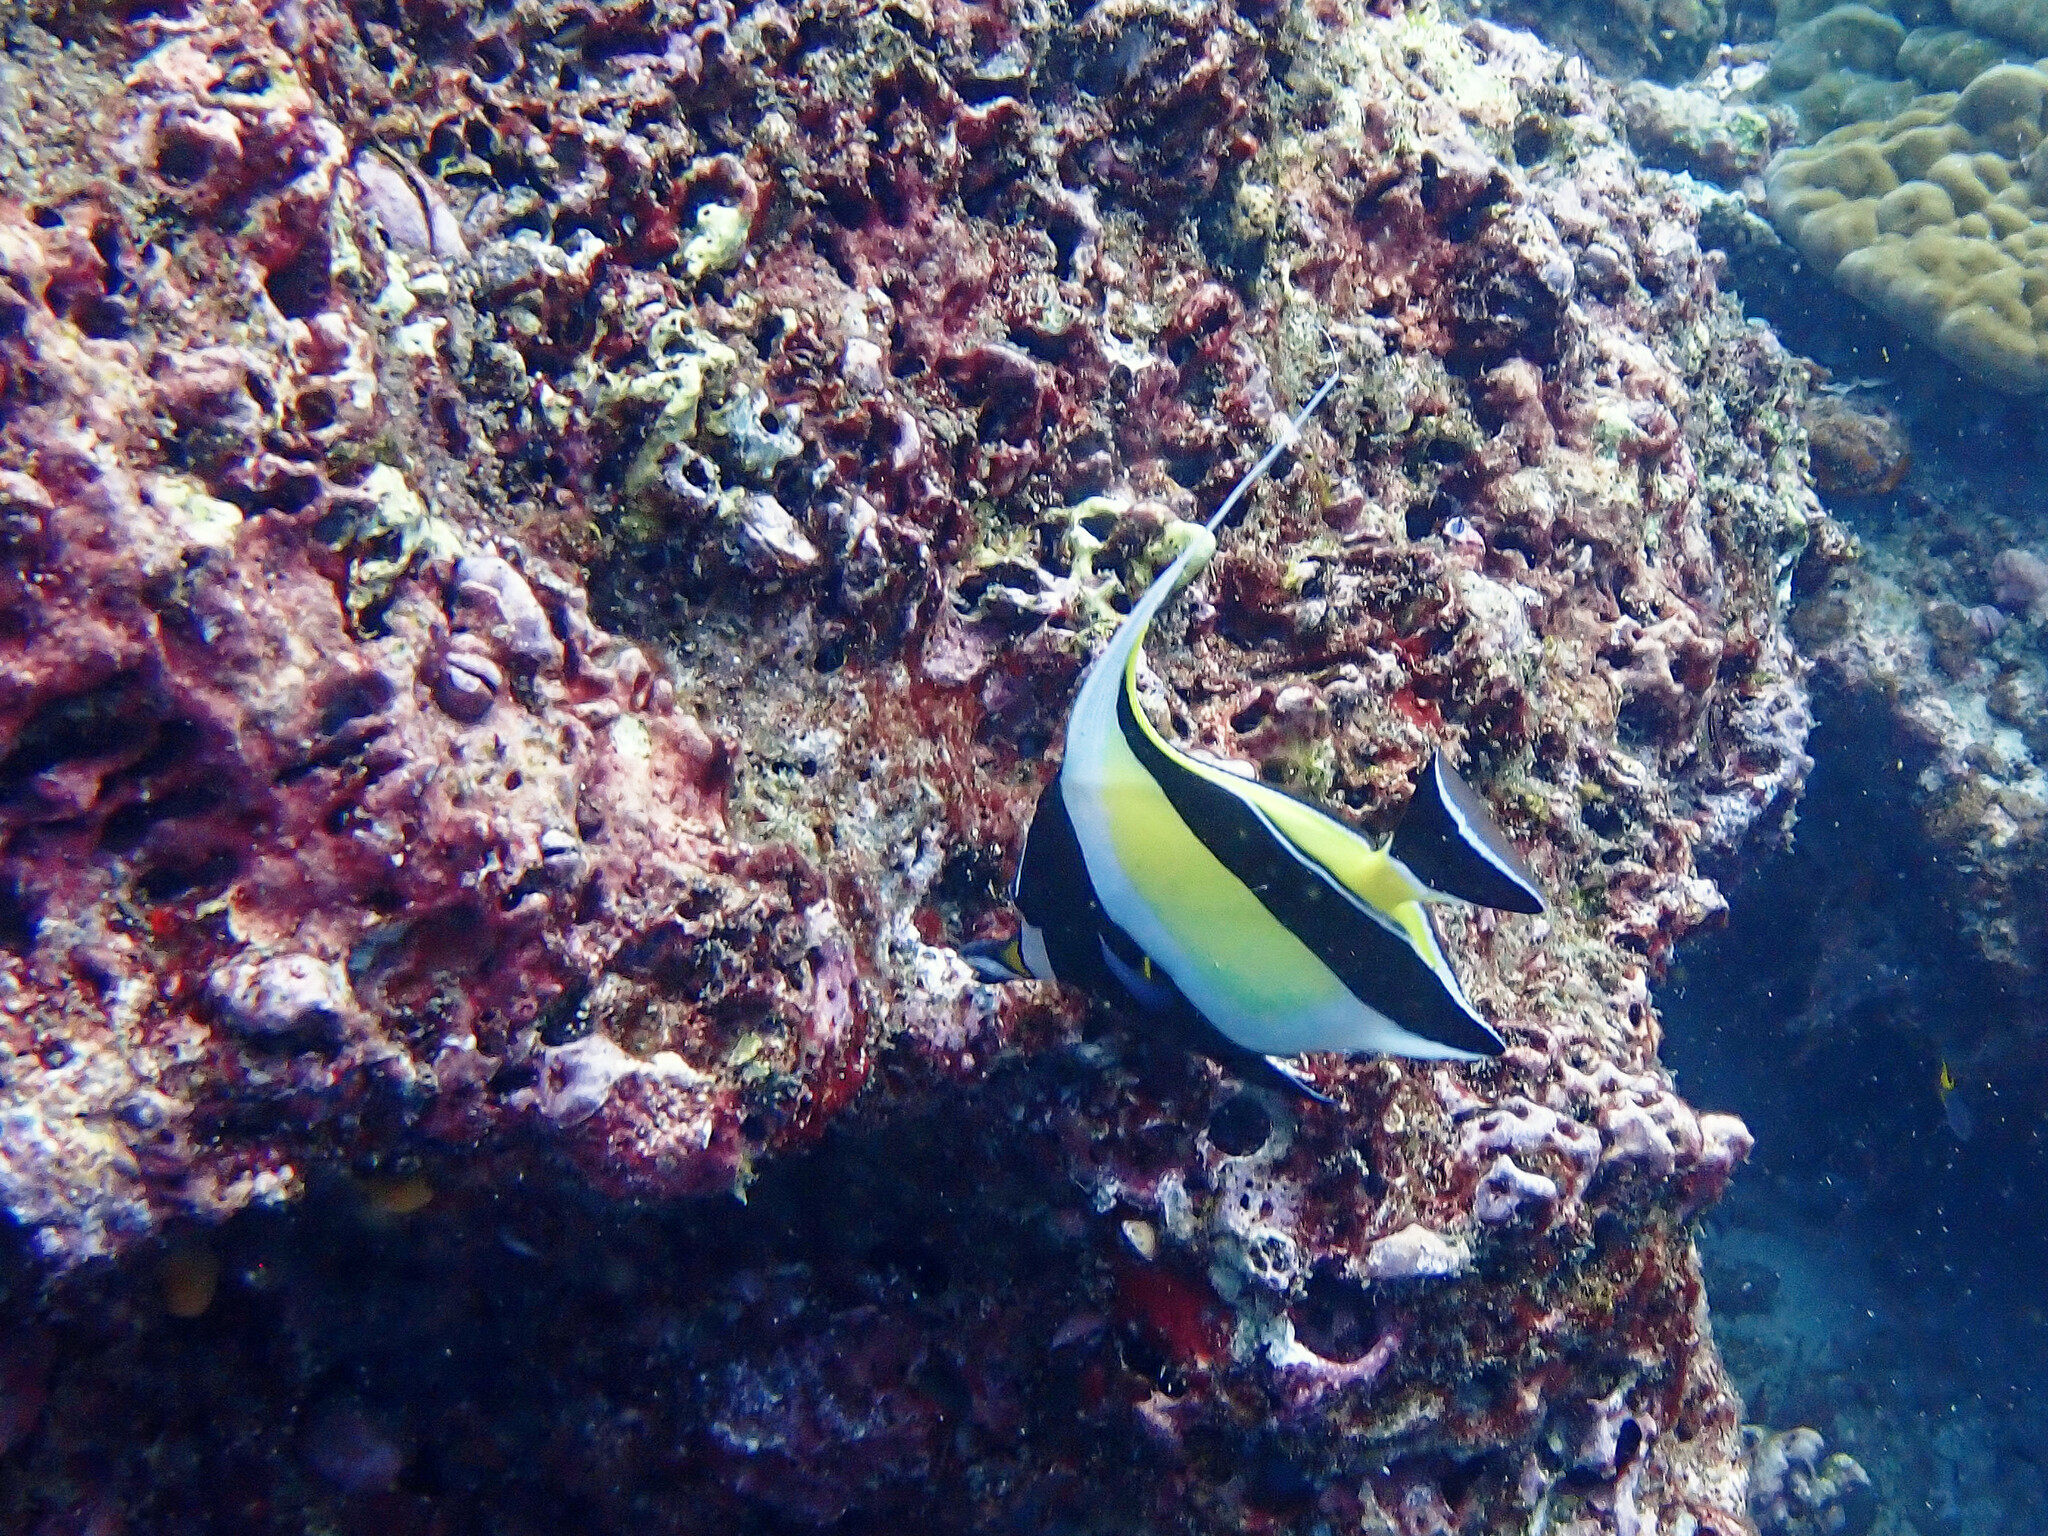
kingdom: Animalia
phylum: Chordata
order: Perciformes
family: Zanclidae
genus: Zanclus
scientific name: Zanclus cornutus
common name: Moorish idol
